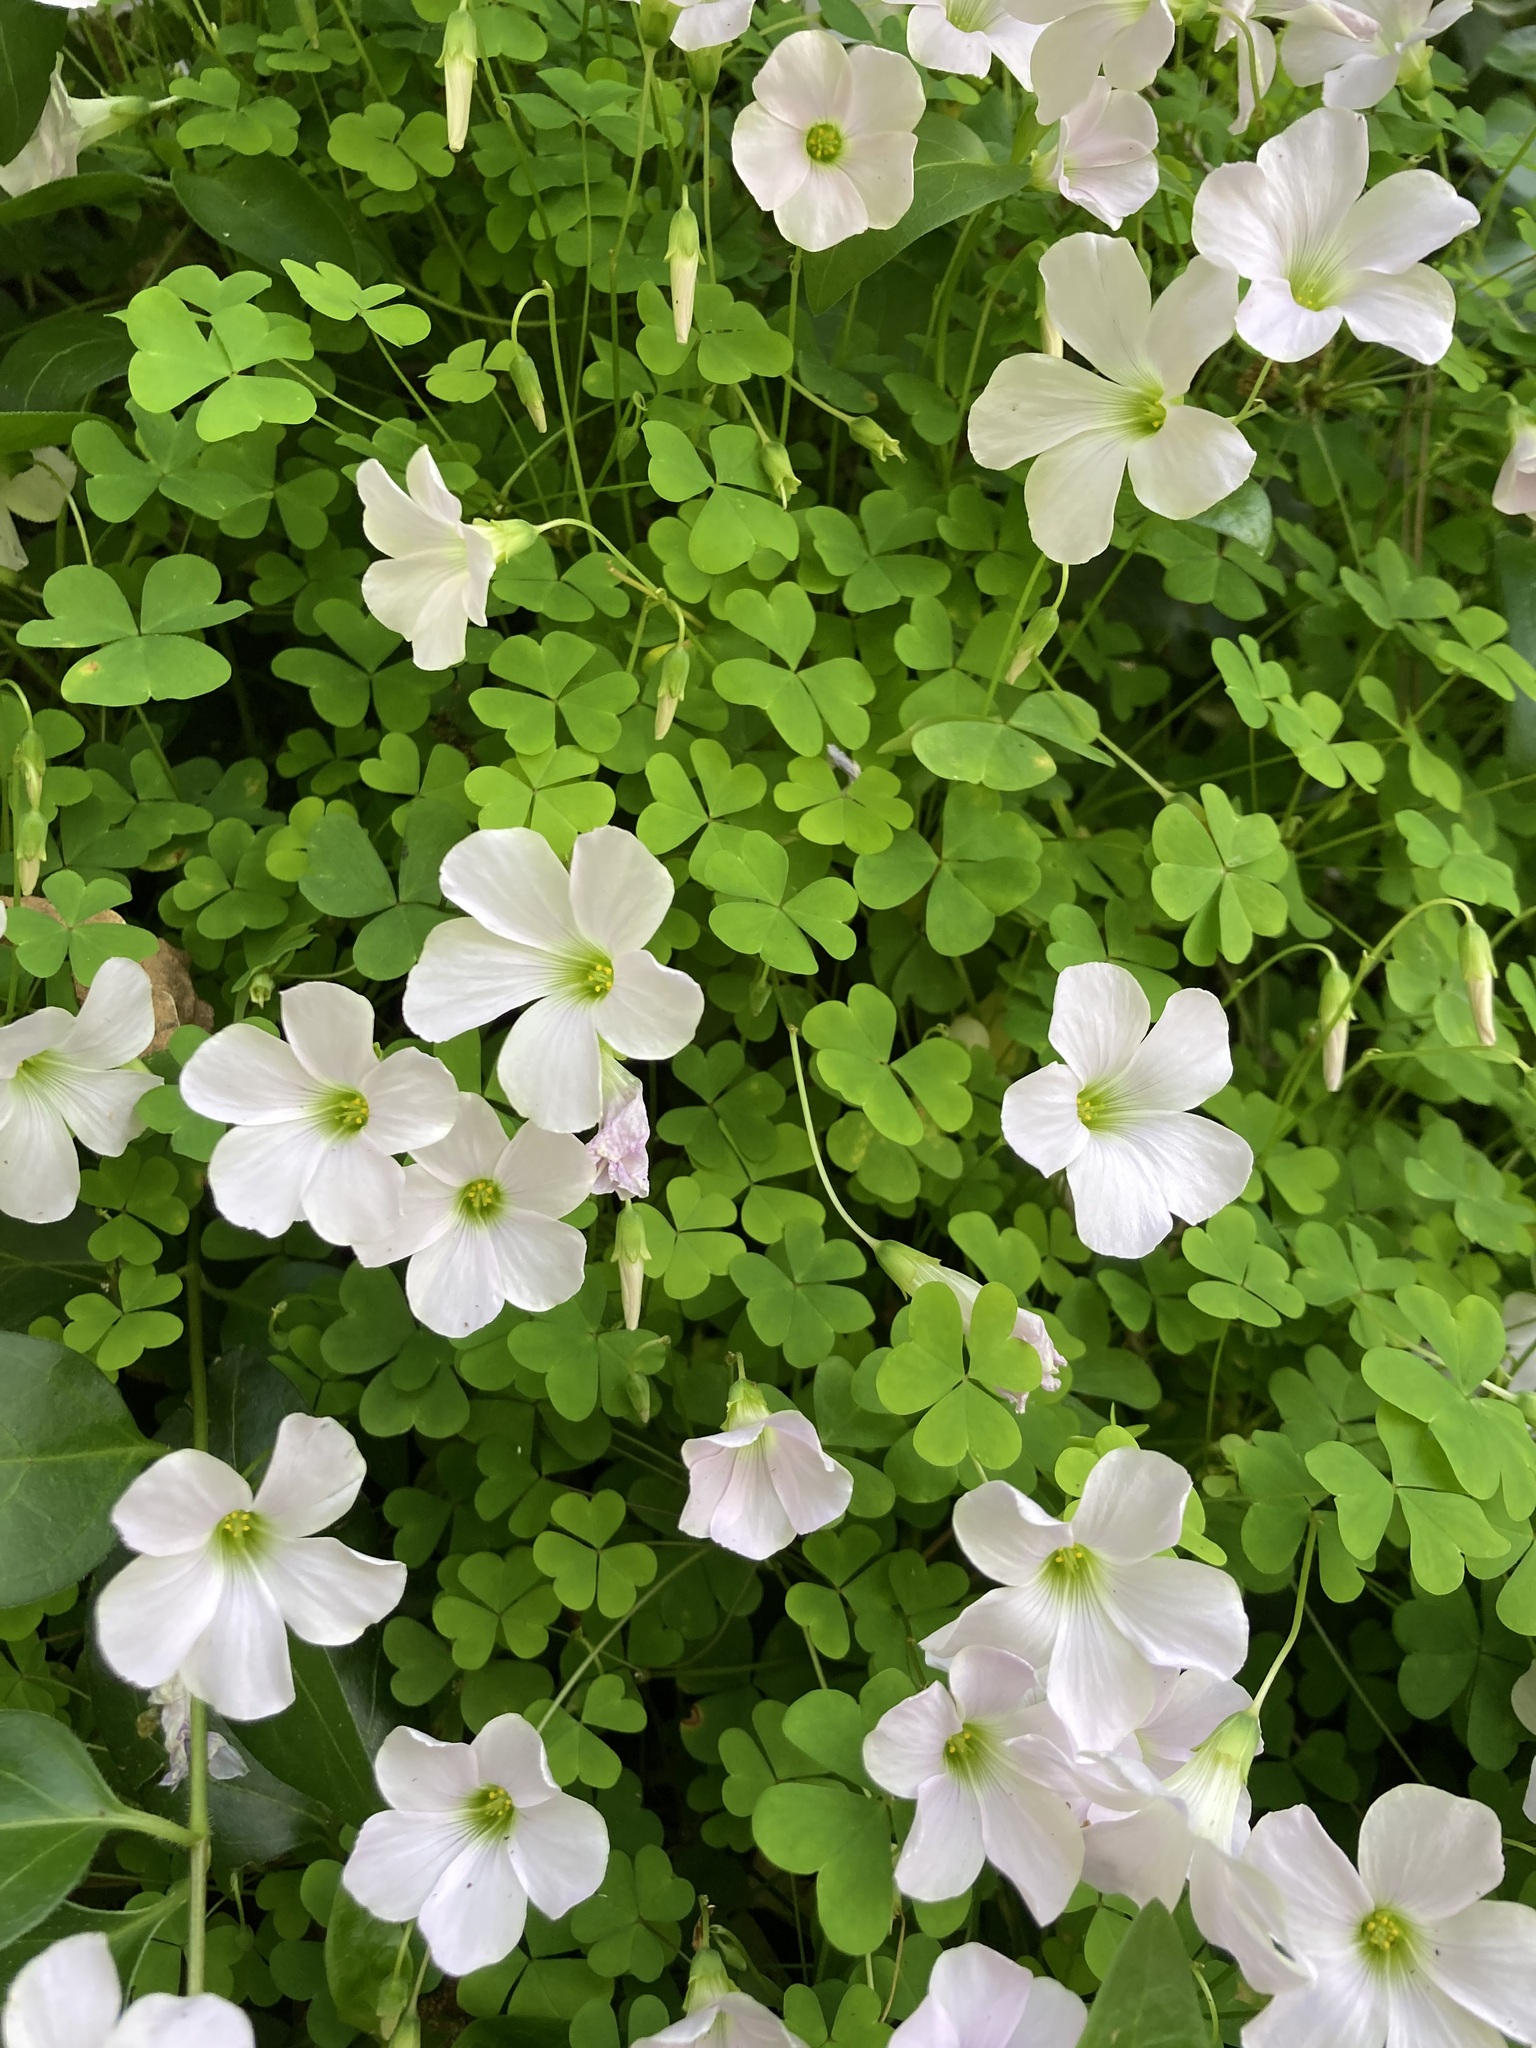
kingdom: Plantae
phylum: Tracheophyta
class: Magnoliopsida
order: Oxalidales
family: Oxalidaceae
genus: Oxalis
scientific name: Oxalis incarnata
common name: Pale pink-sorrel
